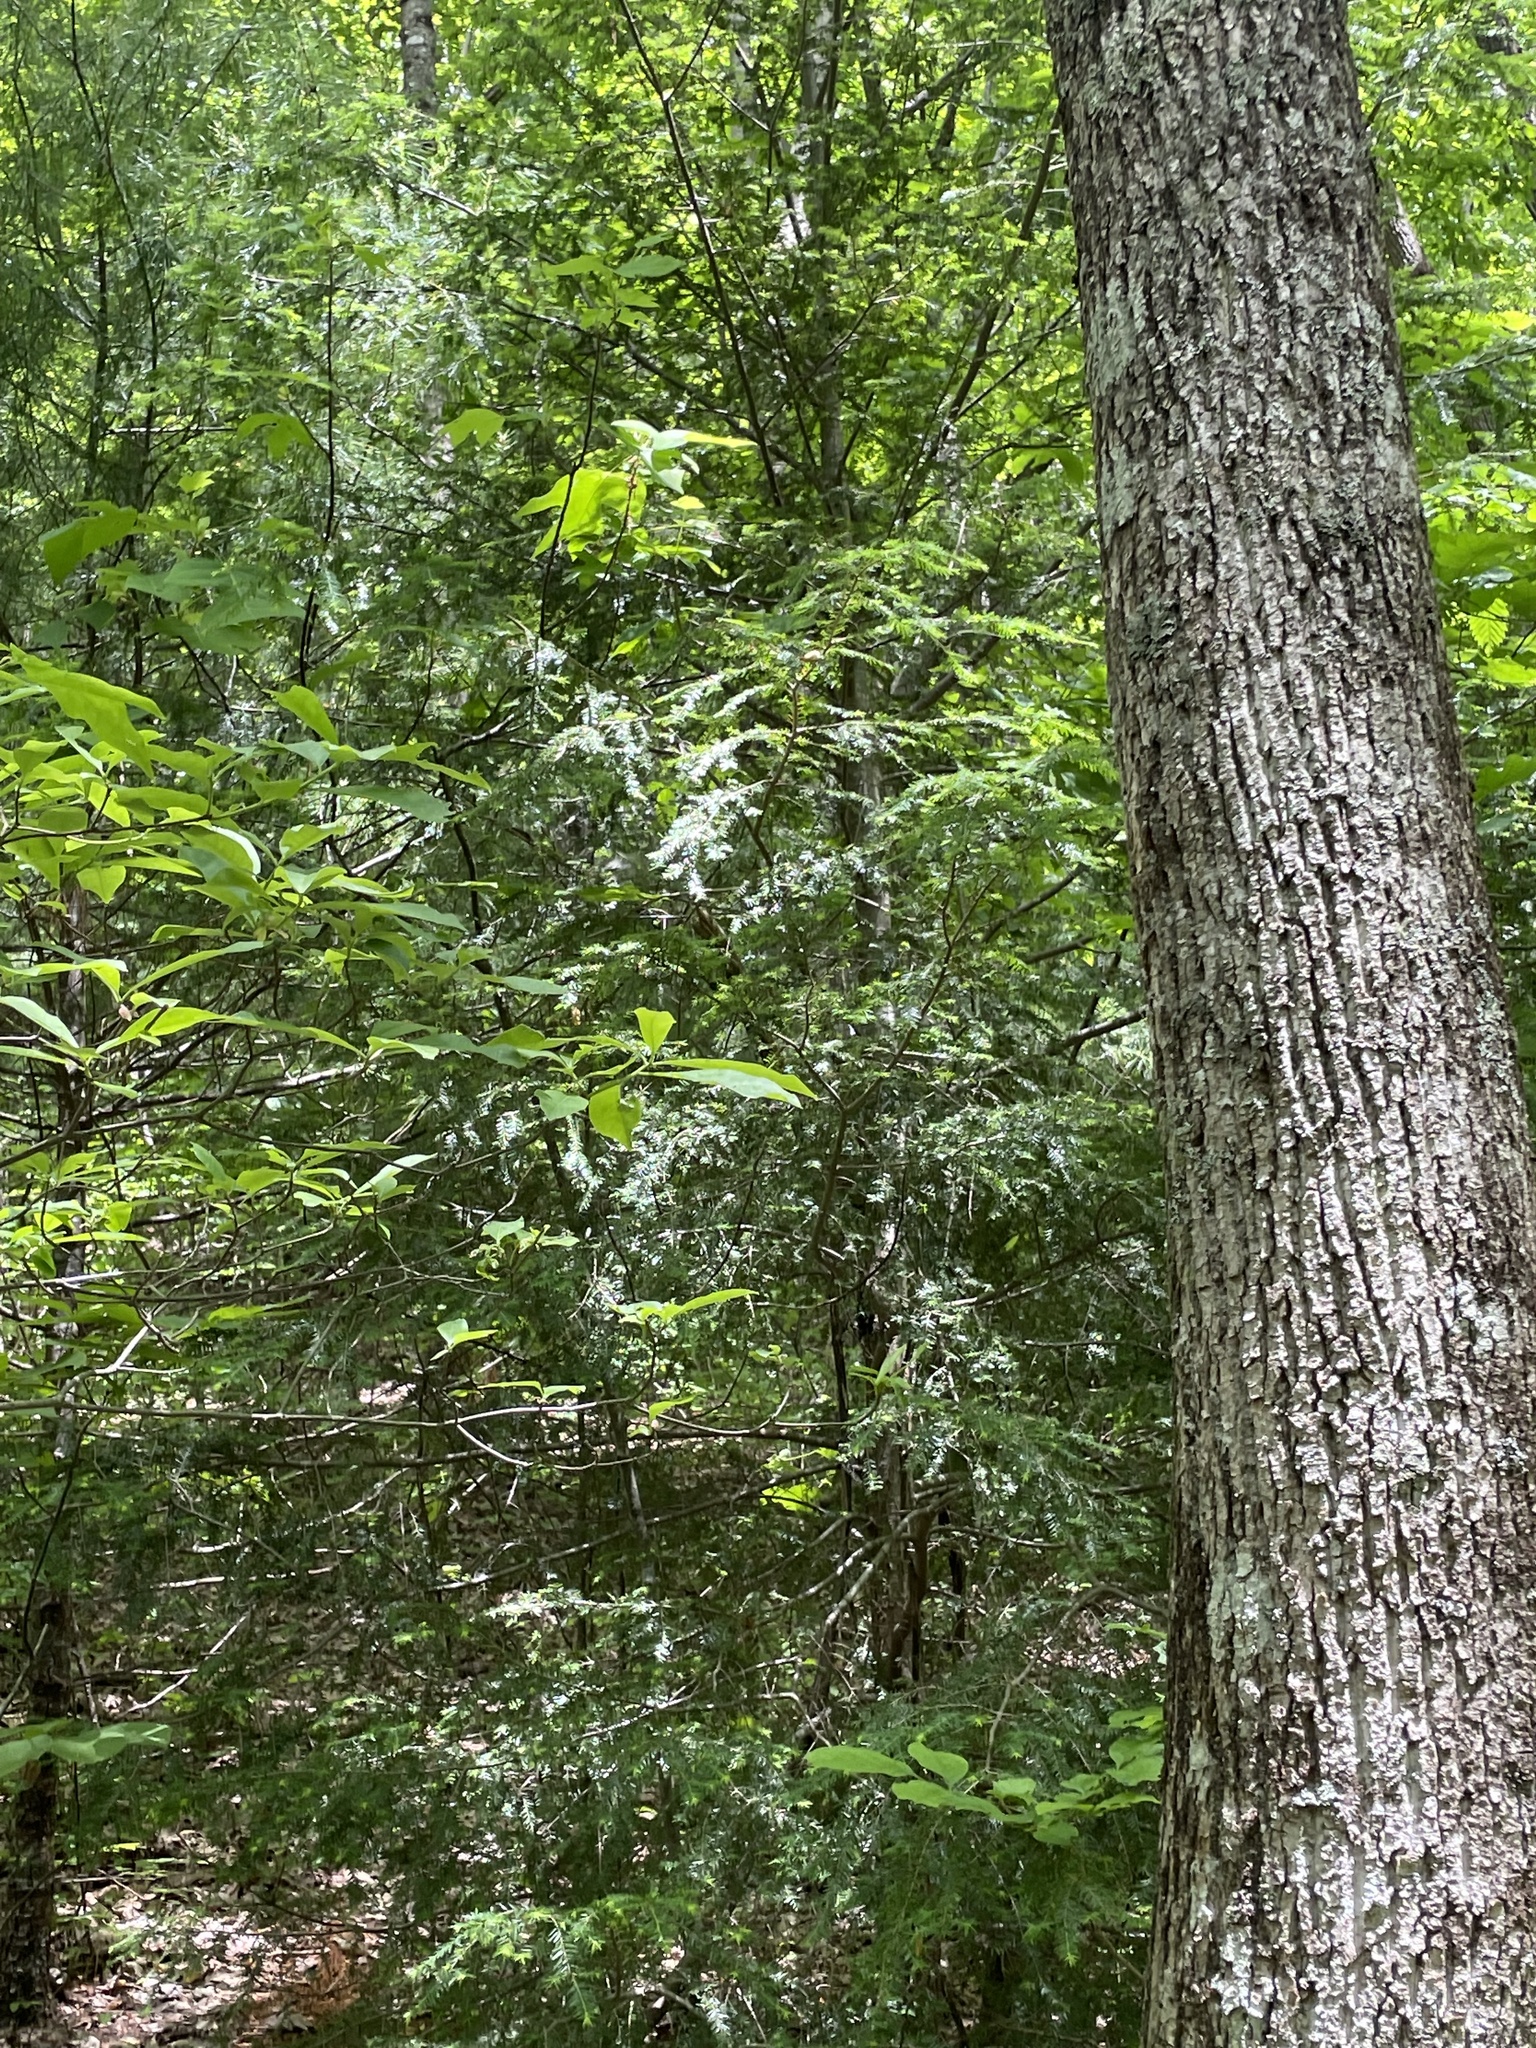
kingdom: Plantae
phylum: Tracheophyta
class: Pinopsida
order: Pinales
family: Pinaceae
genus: Tsuga
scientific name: Tsuga canadensis
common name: Eastern hemlock
